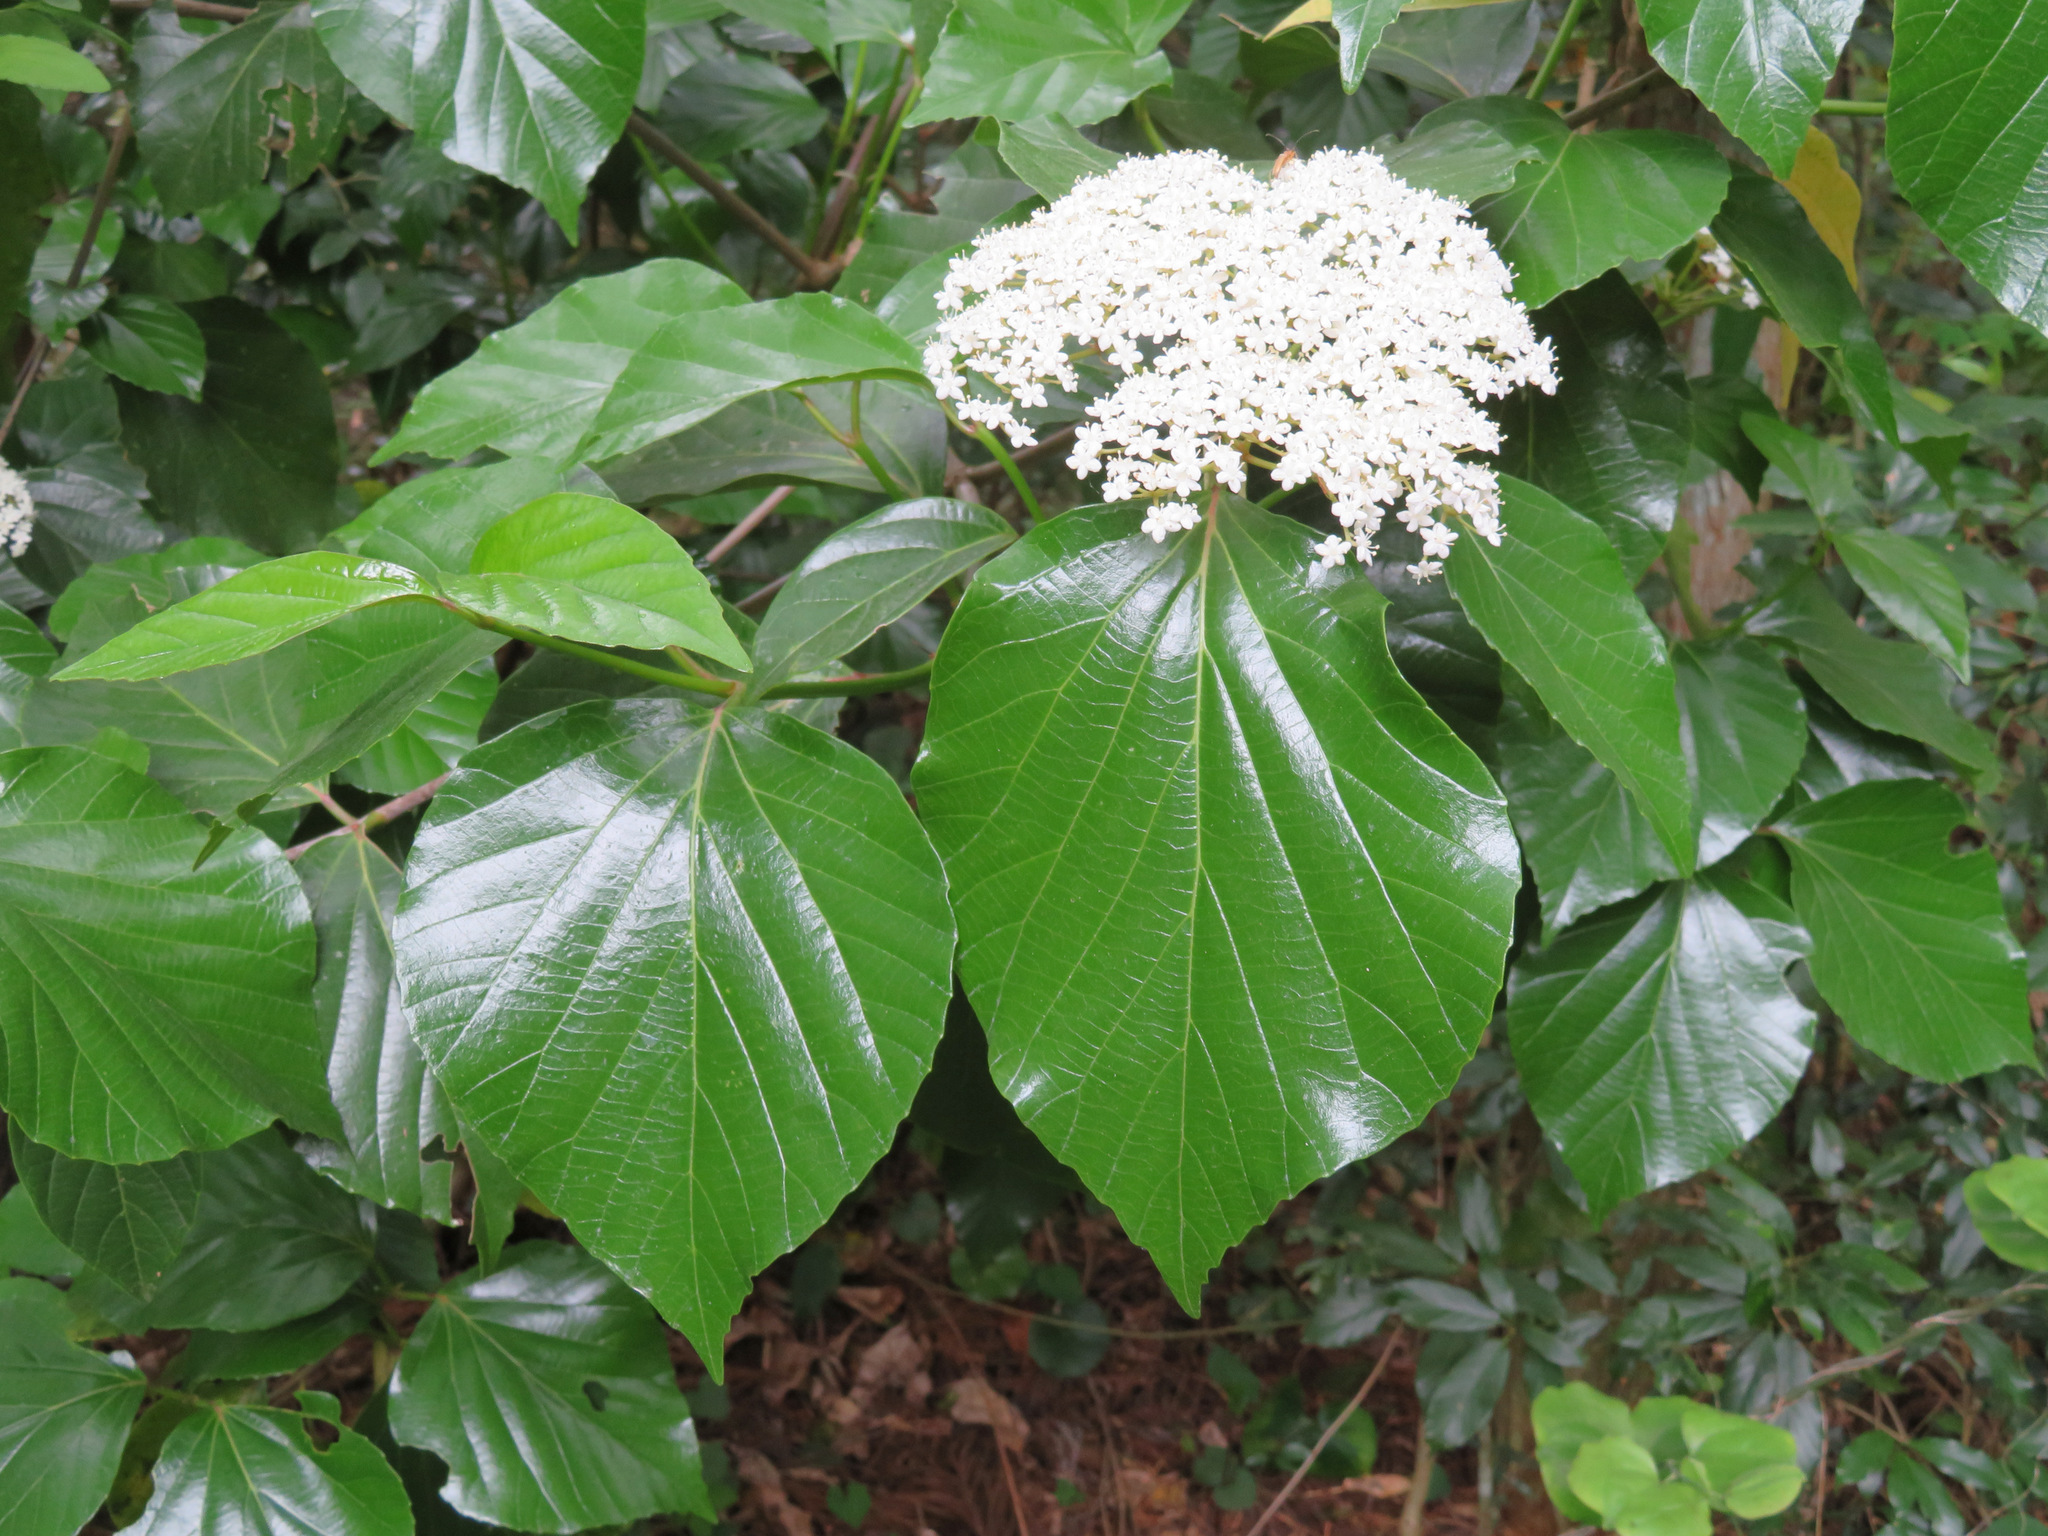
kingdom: Plantae
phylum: Tracheophyta
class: Magnoliopsida
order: Dipsacales
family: Viburnaceae
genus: Viburnum
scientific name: Viburnum japonicum
